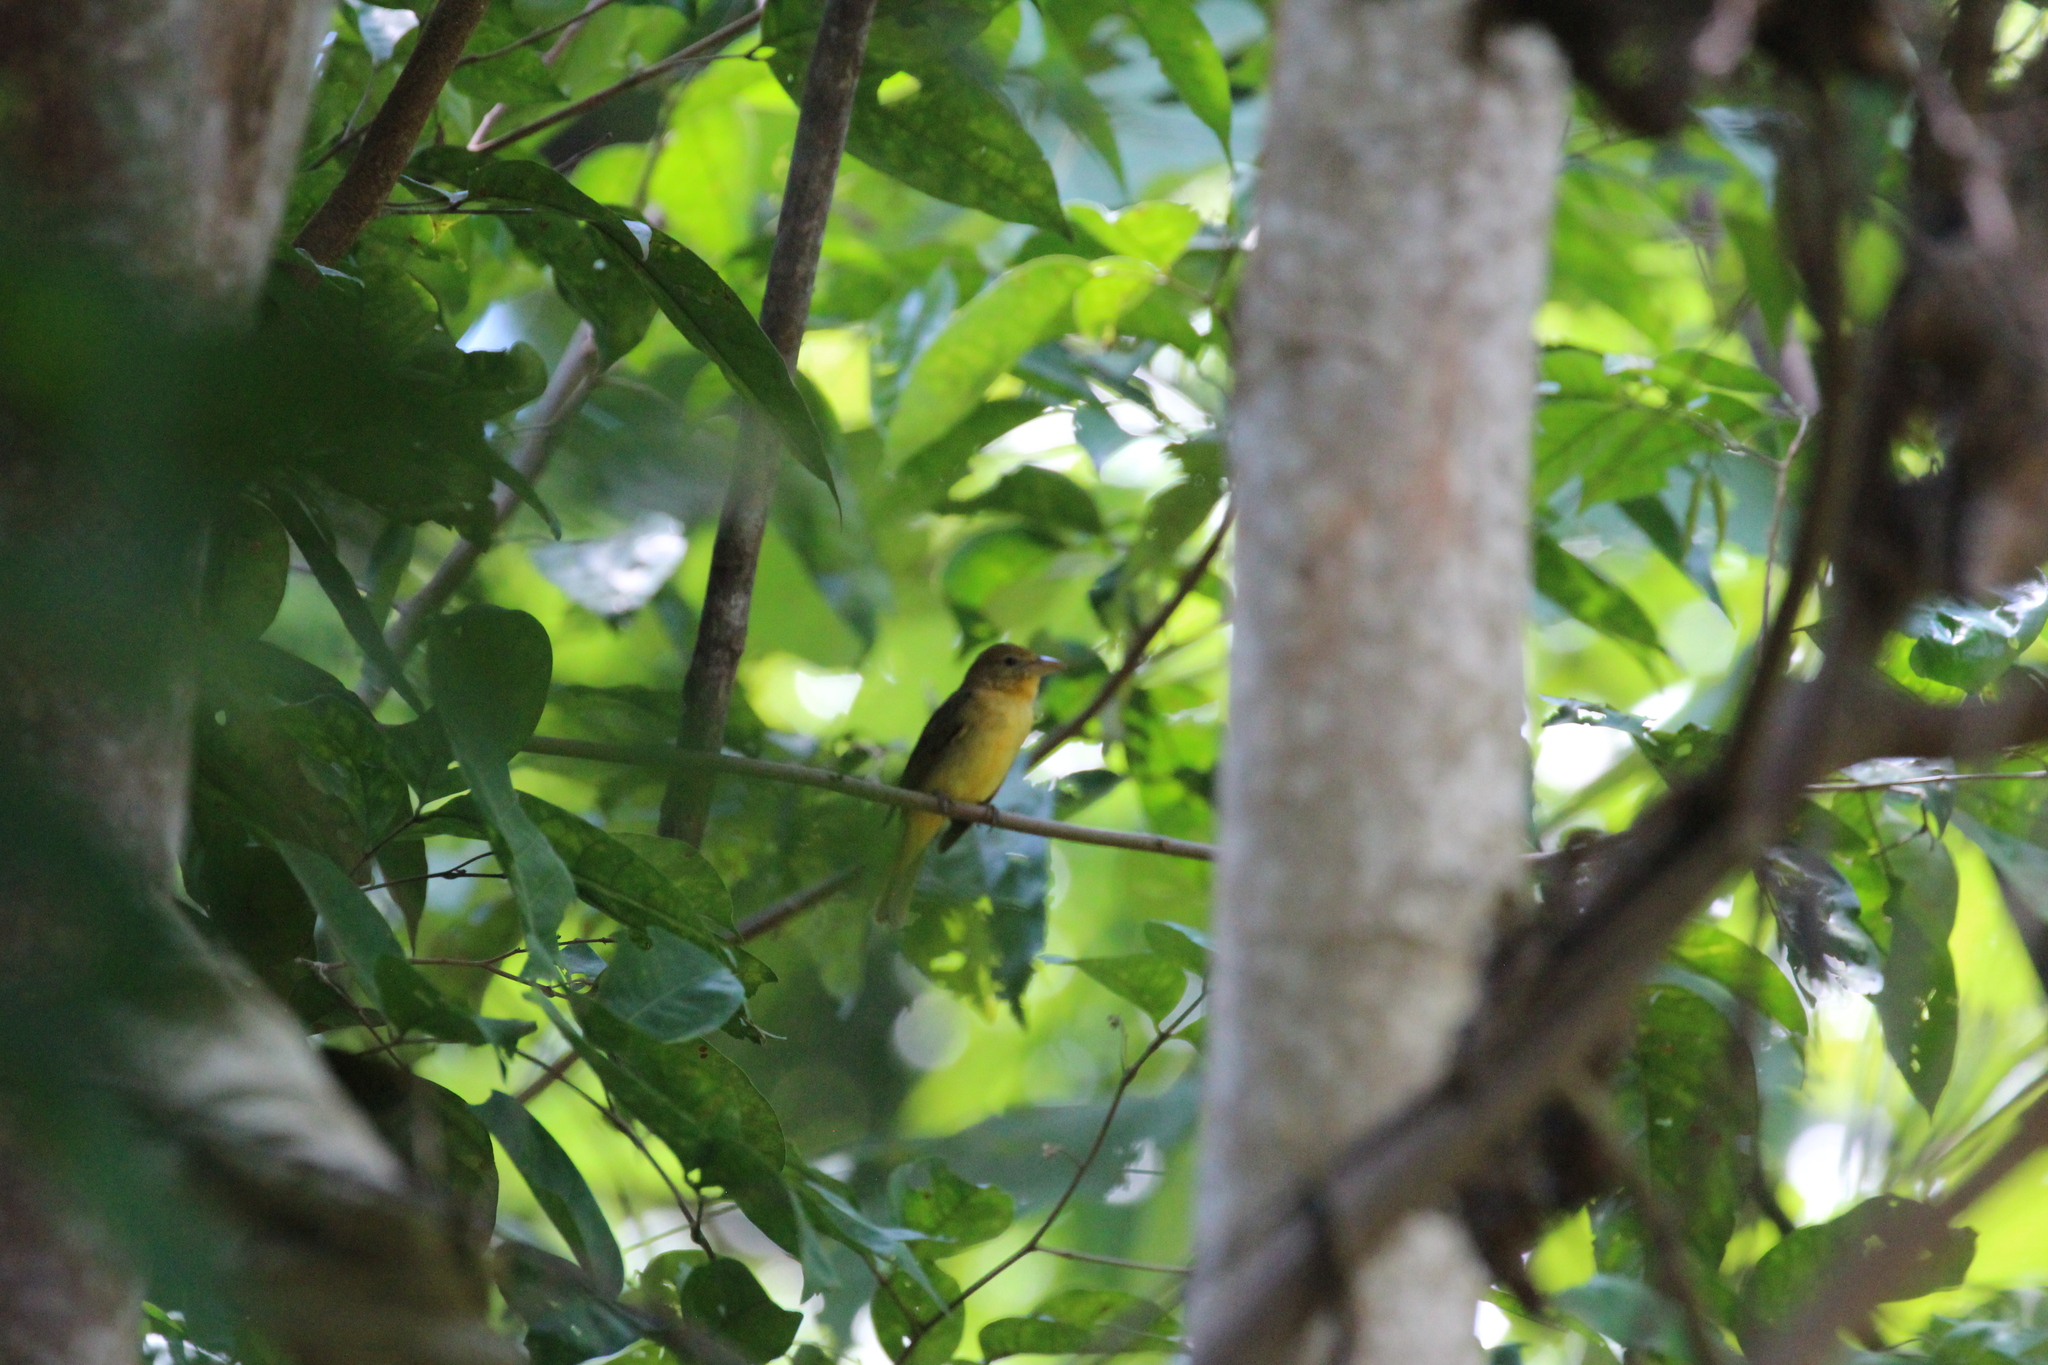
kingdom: Animalia
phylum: Chordata
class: Aves
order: Passeriformes
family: Cardinalidae
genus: Piranga
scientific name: Piranga rubra
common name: Summer tanager
